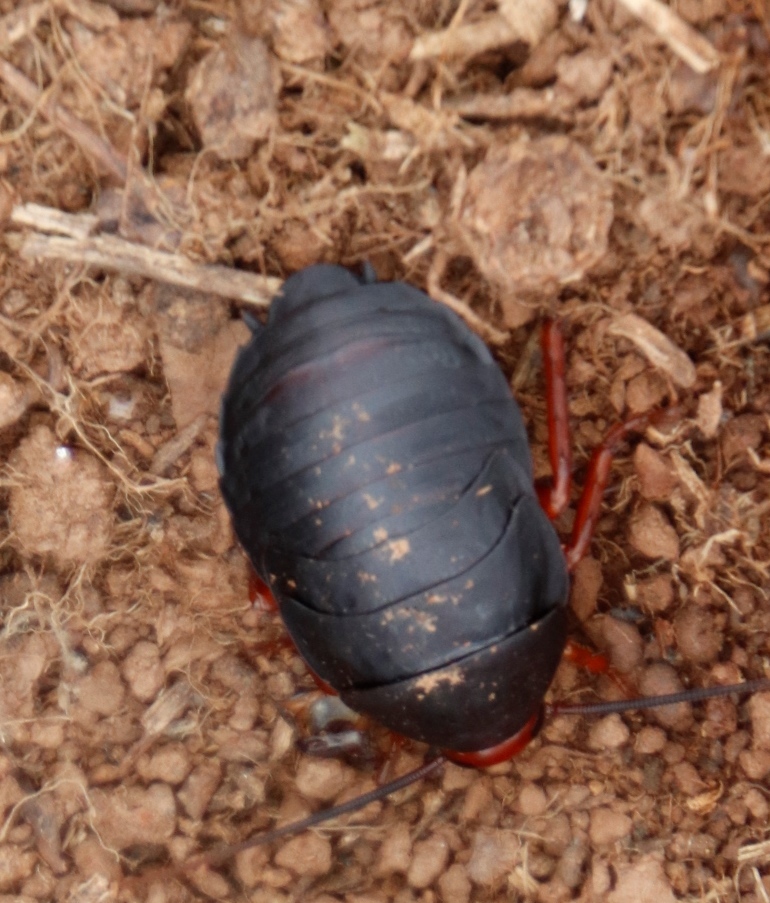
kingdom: Animalia
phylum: Arthropoda
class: Insecta
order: Blattodea
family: Blattidae
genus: Deropeltis
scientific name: Deropeltis erythrocephala
